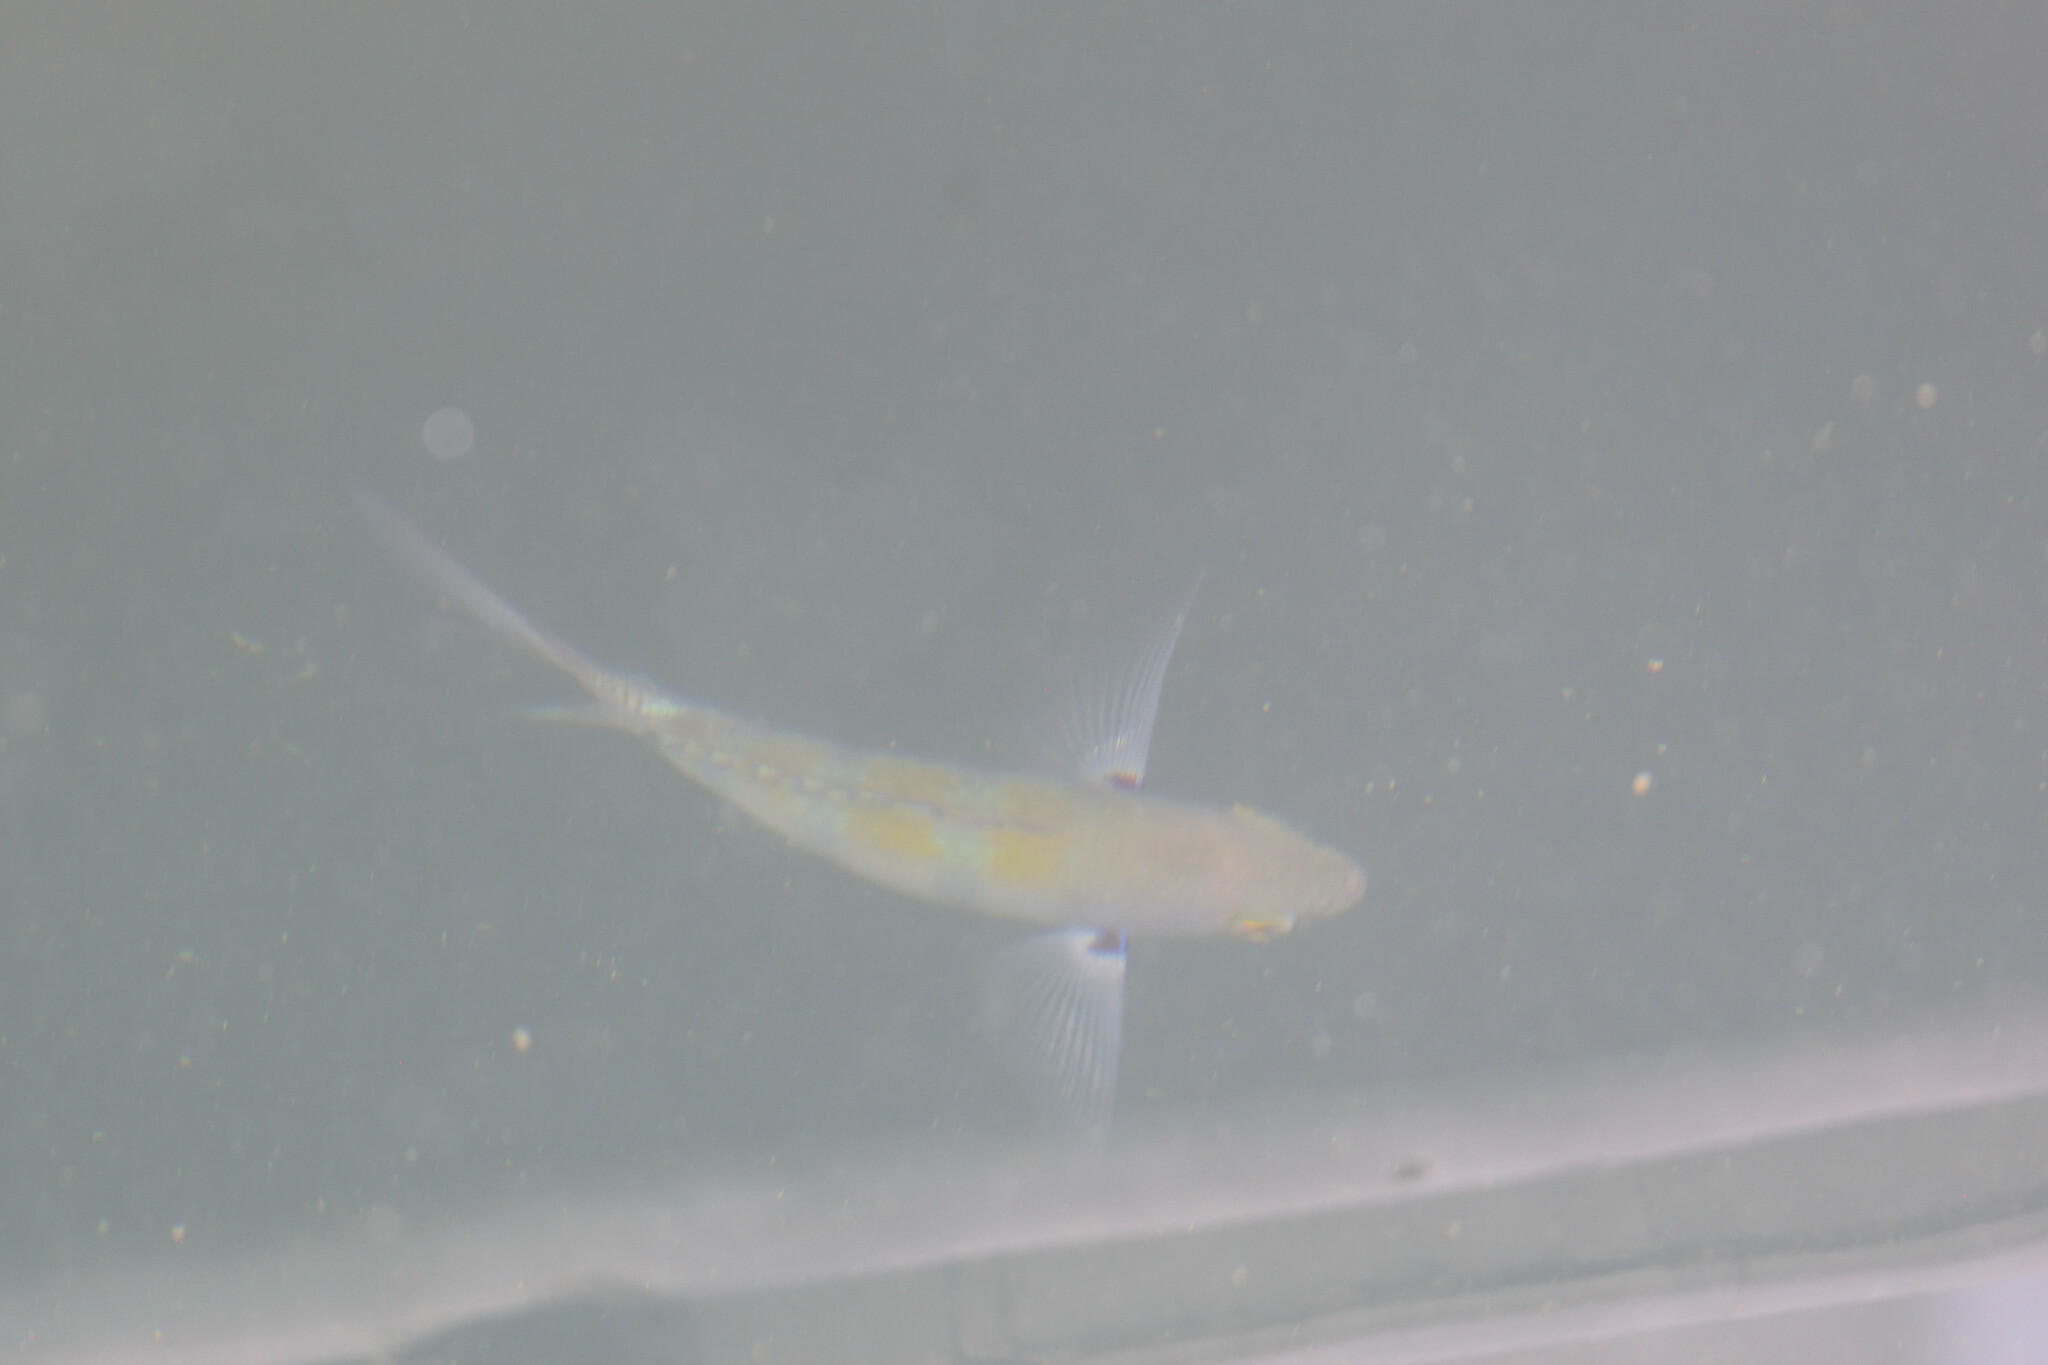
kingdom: Animalia
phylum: Chordata
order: Perciformes
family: Pomacentridae
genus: Abudefduf
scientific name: Abudefduf troschelii
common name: Panamic sergeant major
